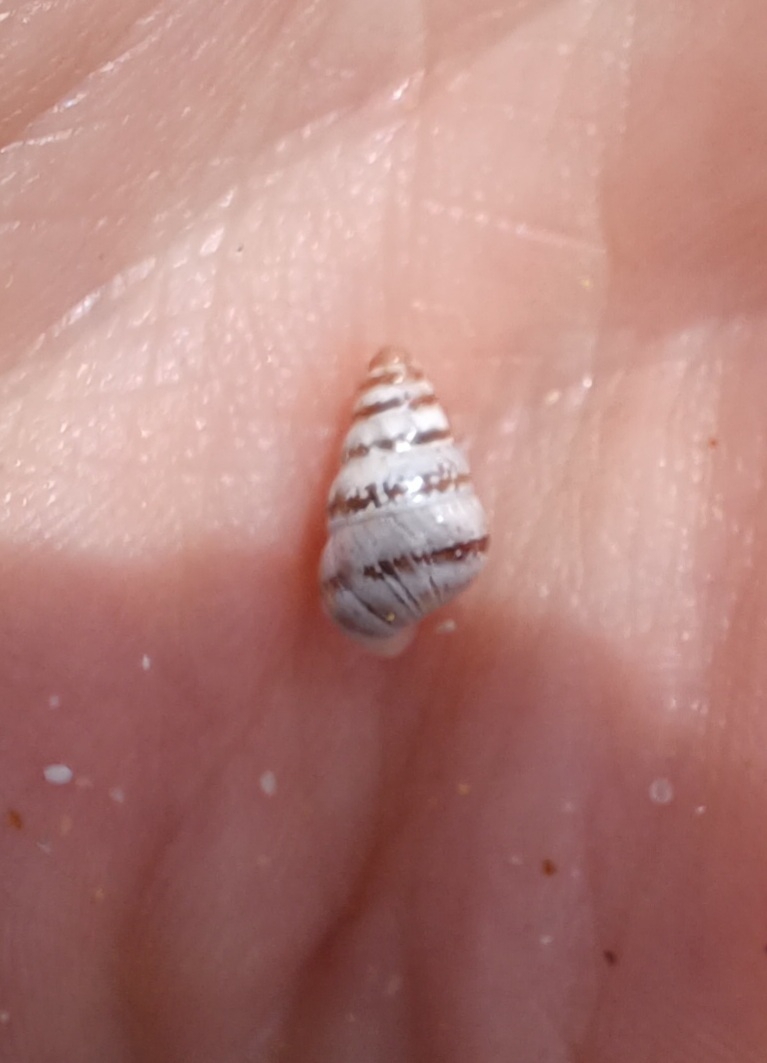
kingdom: Animalia
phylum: Mollusca
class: Gastropoda
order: Stylommatophora
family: Geomitridae
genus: Cochlicella
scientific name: Cochlicella barbara
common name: Potbellied helicellid
